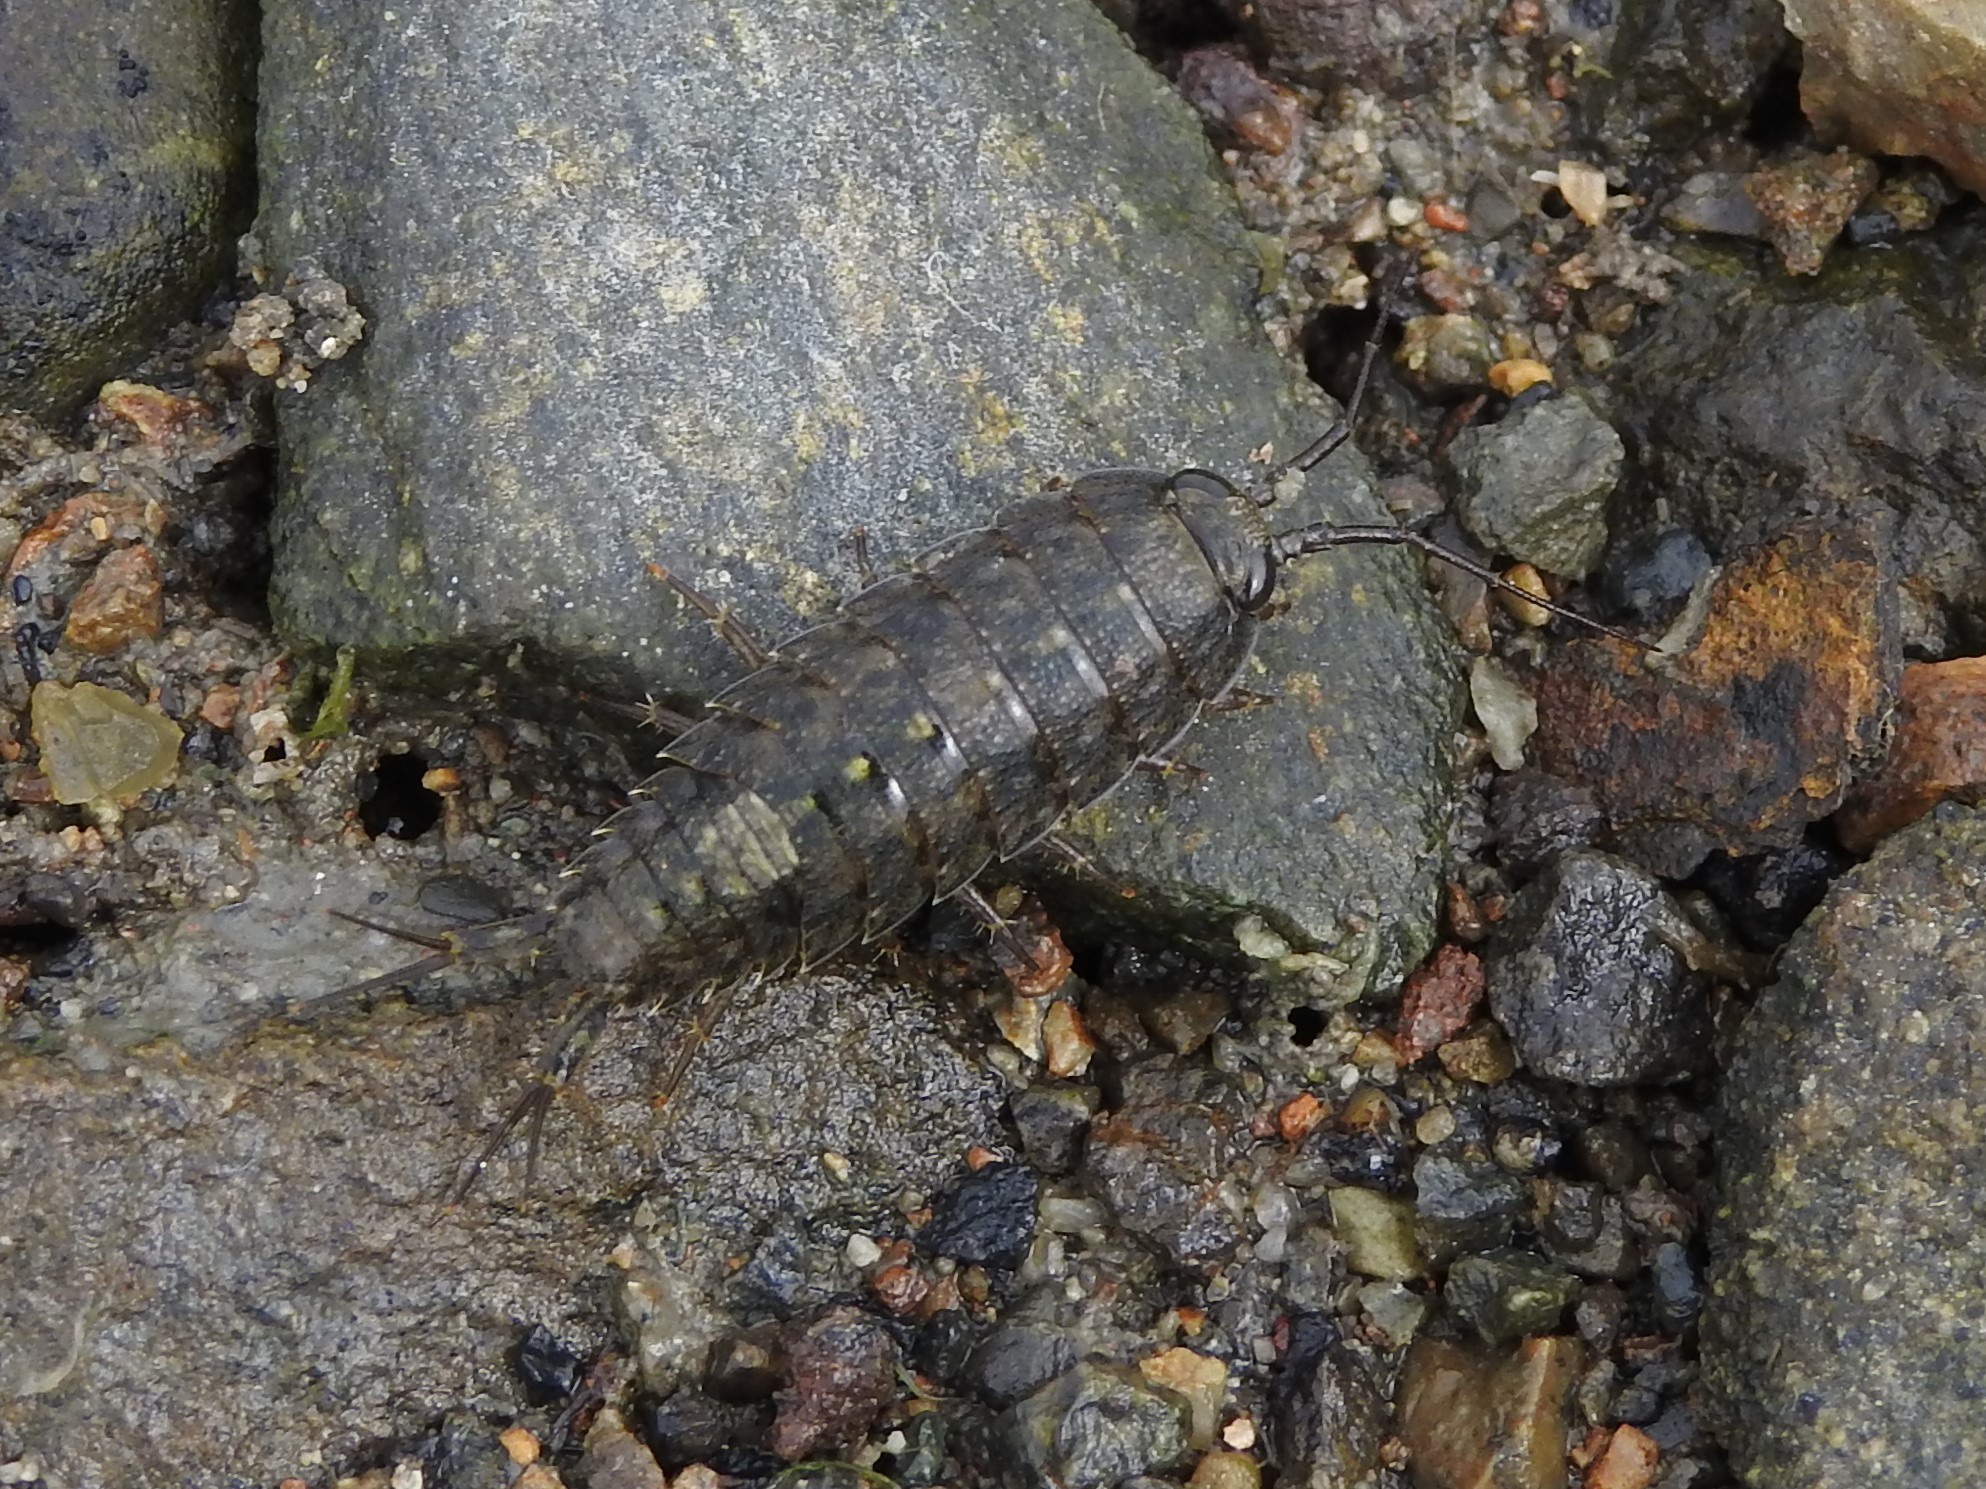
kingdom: Animalia
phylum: Arthropoda
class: Malacostraca
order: Isopoda
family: Ligiidae
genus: Ligia
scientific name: Ligia occidentalis
